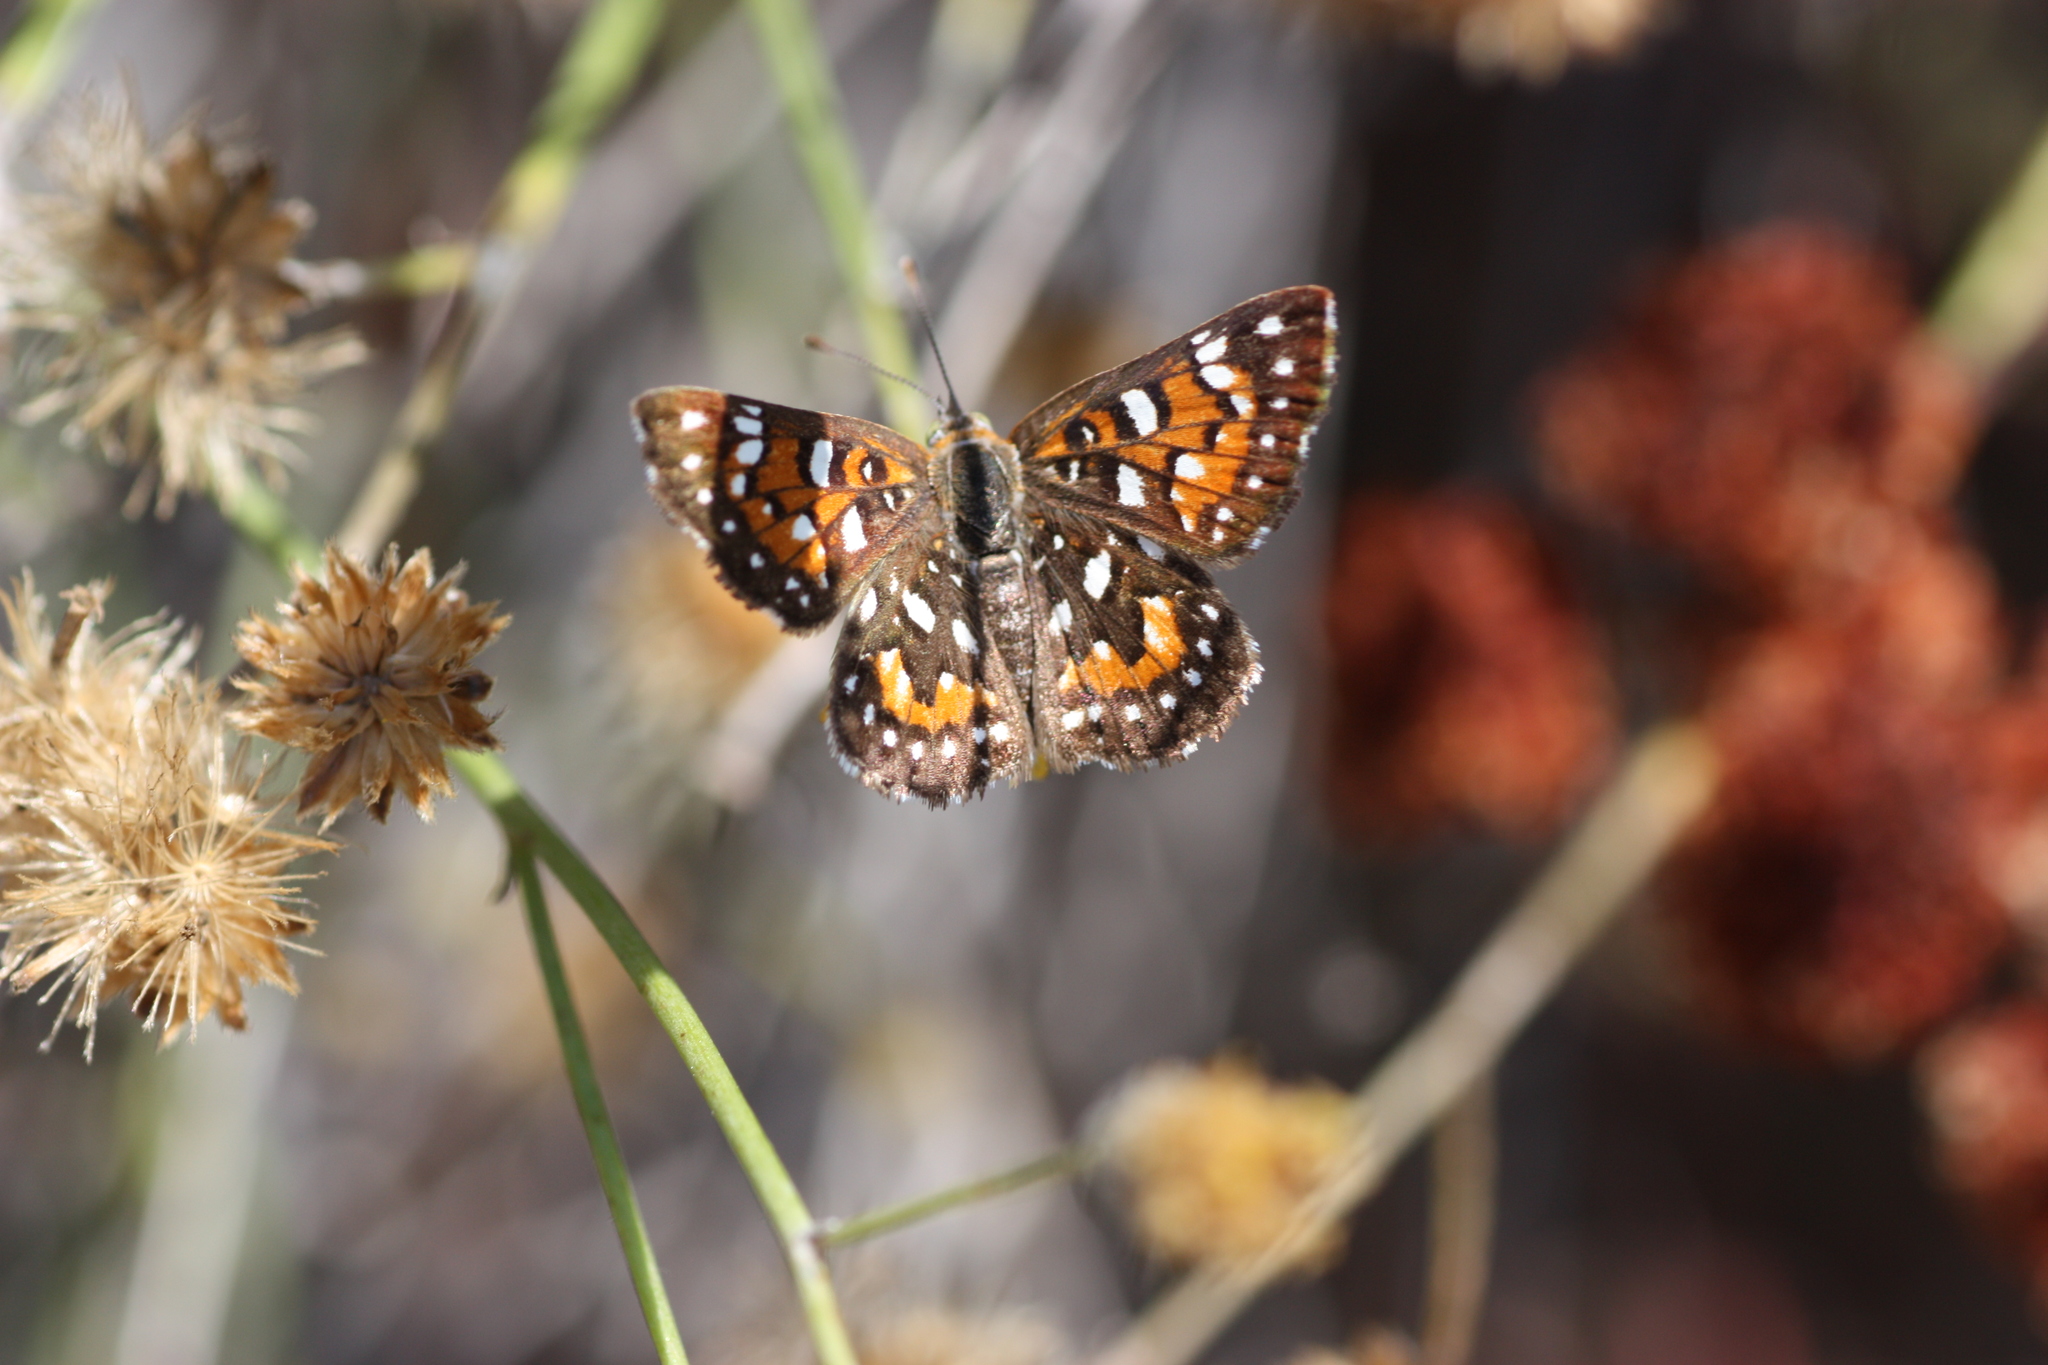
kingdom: Animalia
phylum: Arthropoda
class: Insecta
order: Lepidoptera
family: Riodinidae
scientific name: Riodinidae
